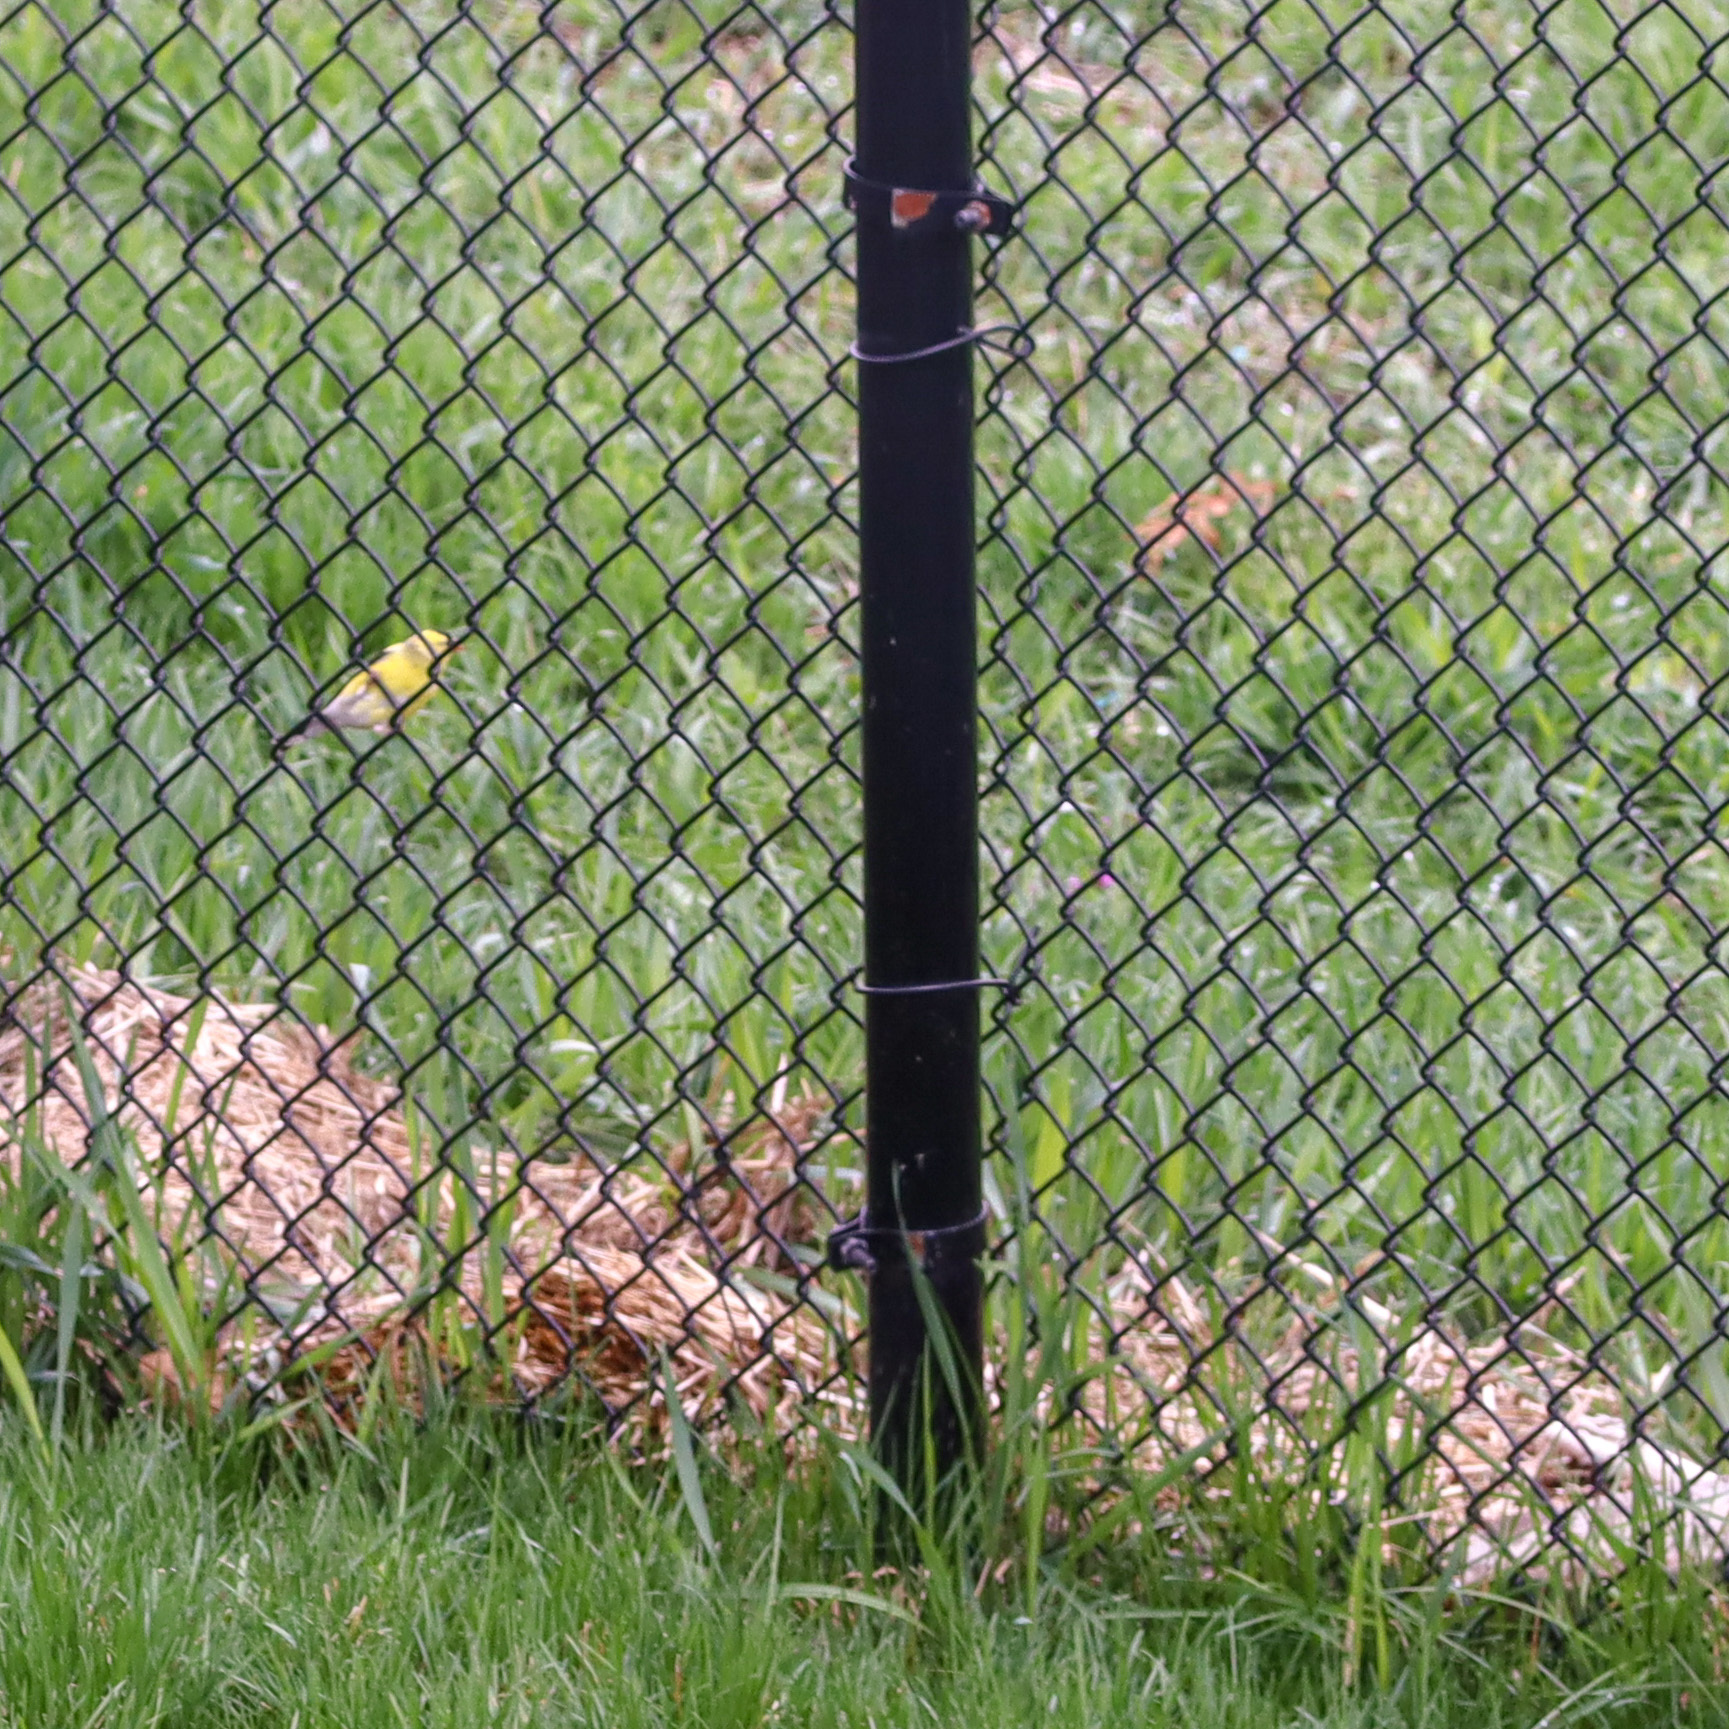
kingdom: Animalia
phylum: Chordata
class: Aves
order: Passeriformes
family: Fringillidae
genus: Spinus
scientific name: Spinus tristis
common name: American goldfinch
